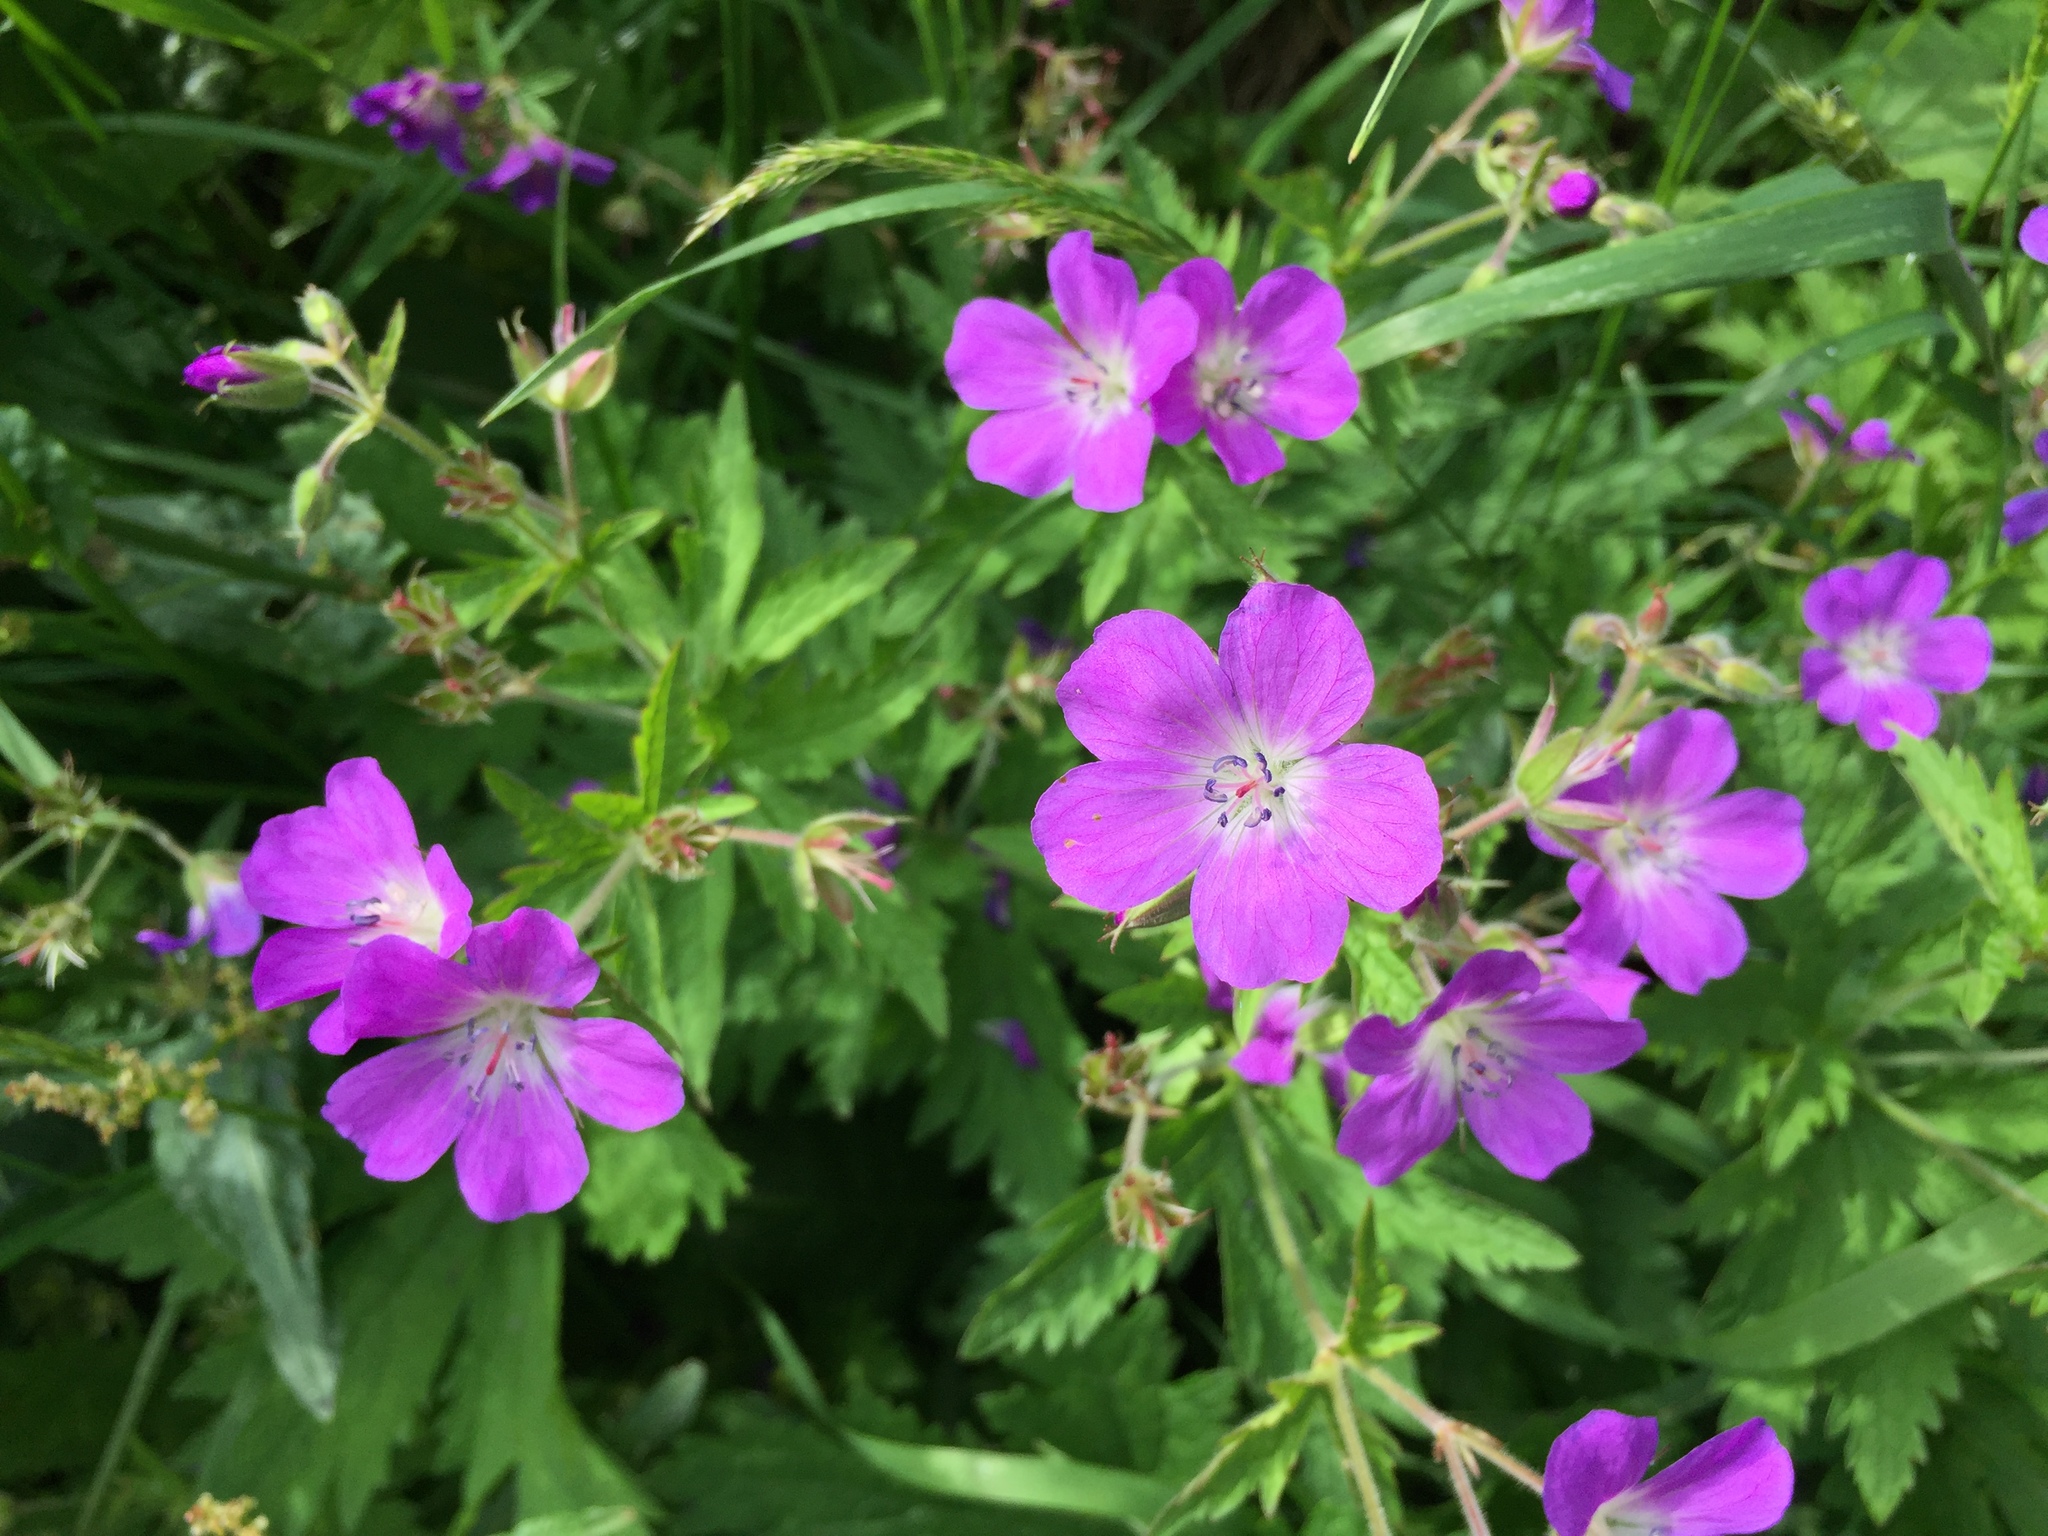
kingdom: Plantae
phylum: Tracheophyta
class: Magnoliopsida
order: Geraniales
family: Geraniaceae
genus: Geranium
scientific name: Geranium sylvaticum
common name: Wood crane's-bill
